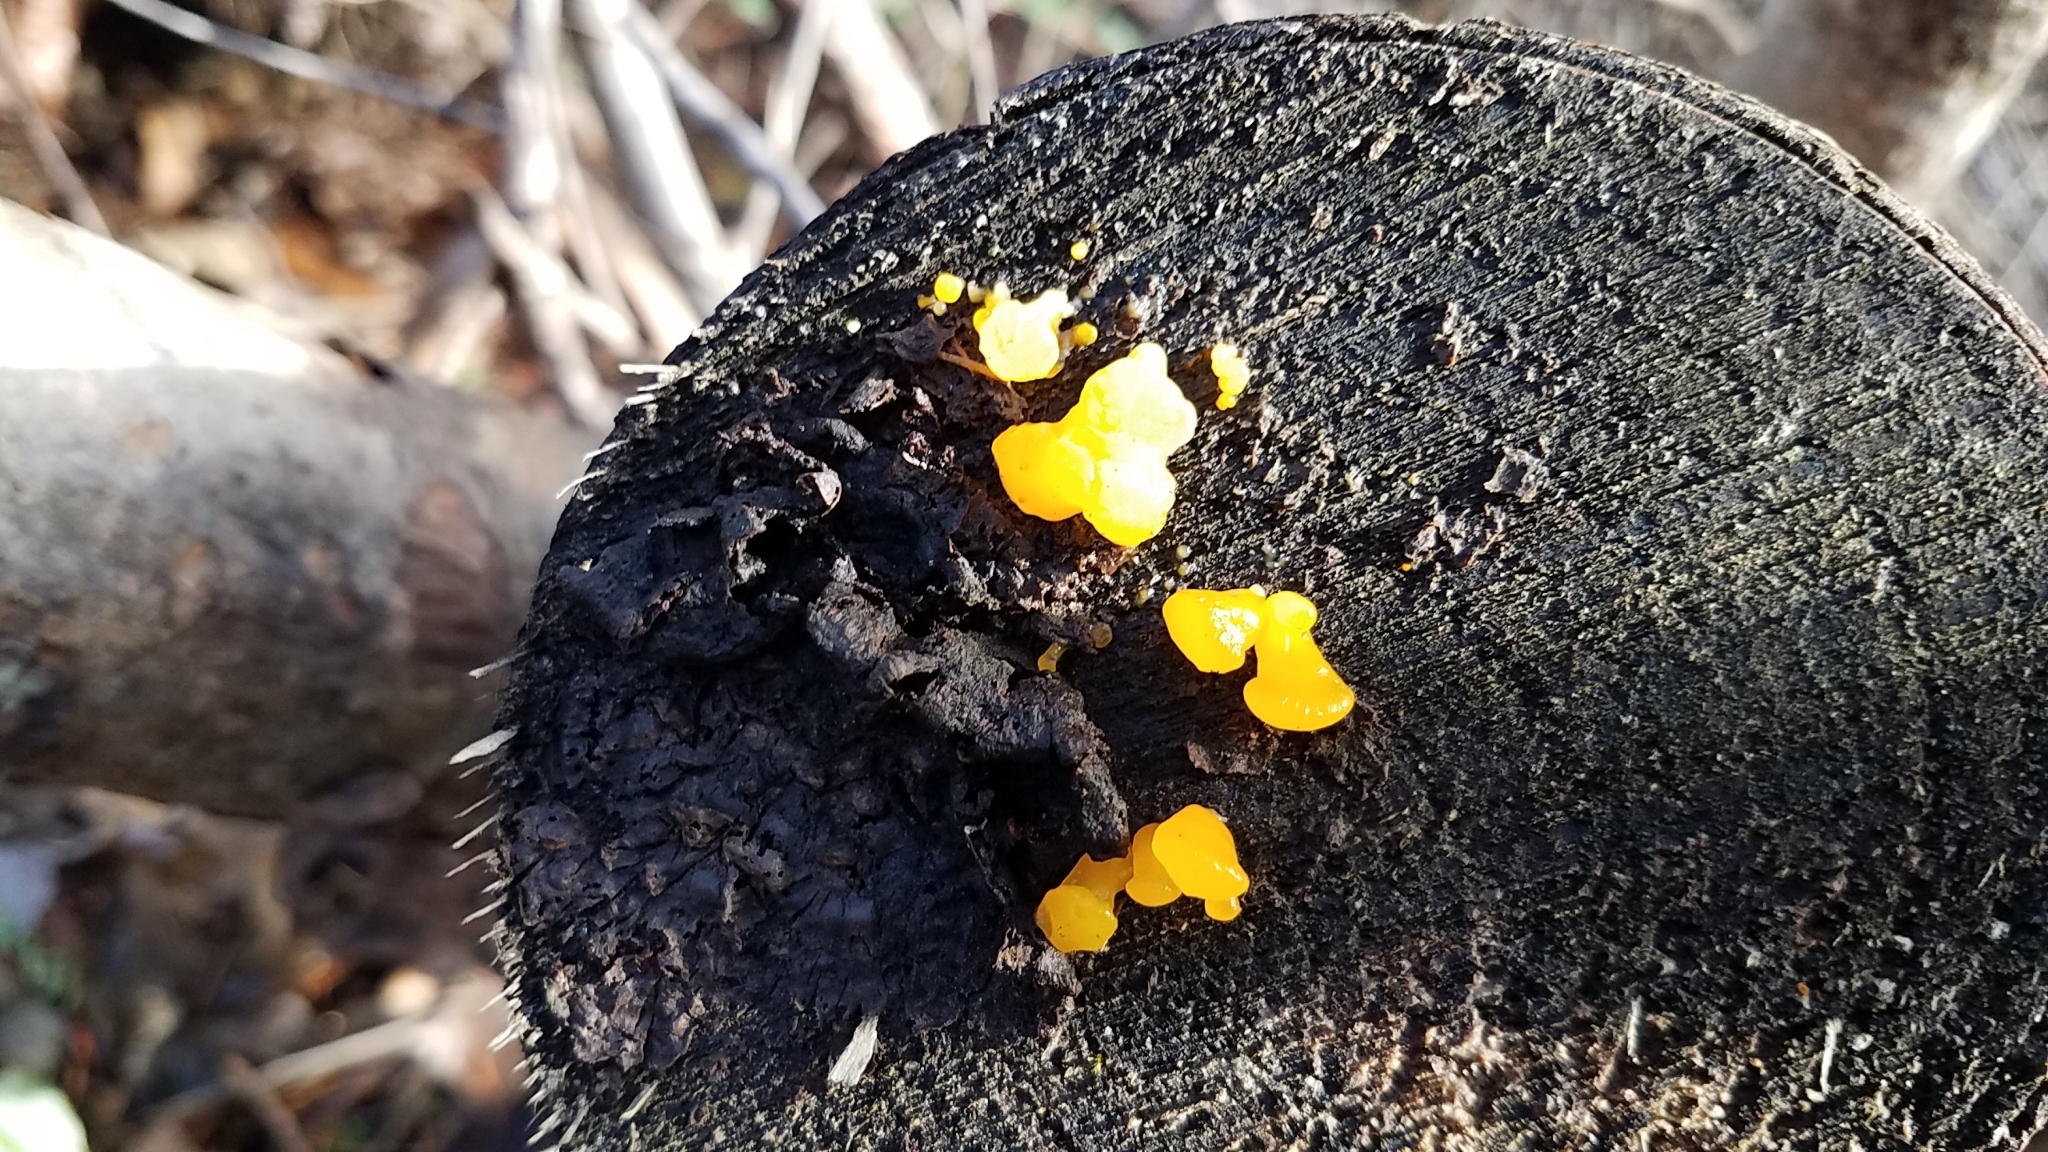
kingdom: Fungi
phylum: Basidiomycota
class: Dacrymycetes
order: Dacrymycetales
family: Dacrymycetaceae
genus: Dacrymyces
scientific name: Dacrymyces chrysospermus
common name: Orange jelly spot
